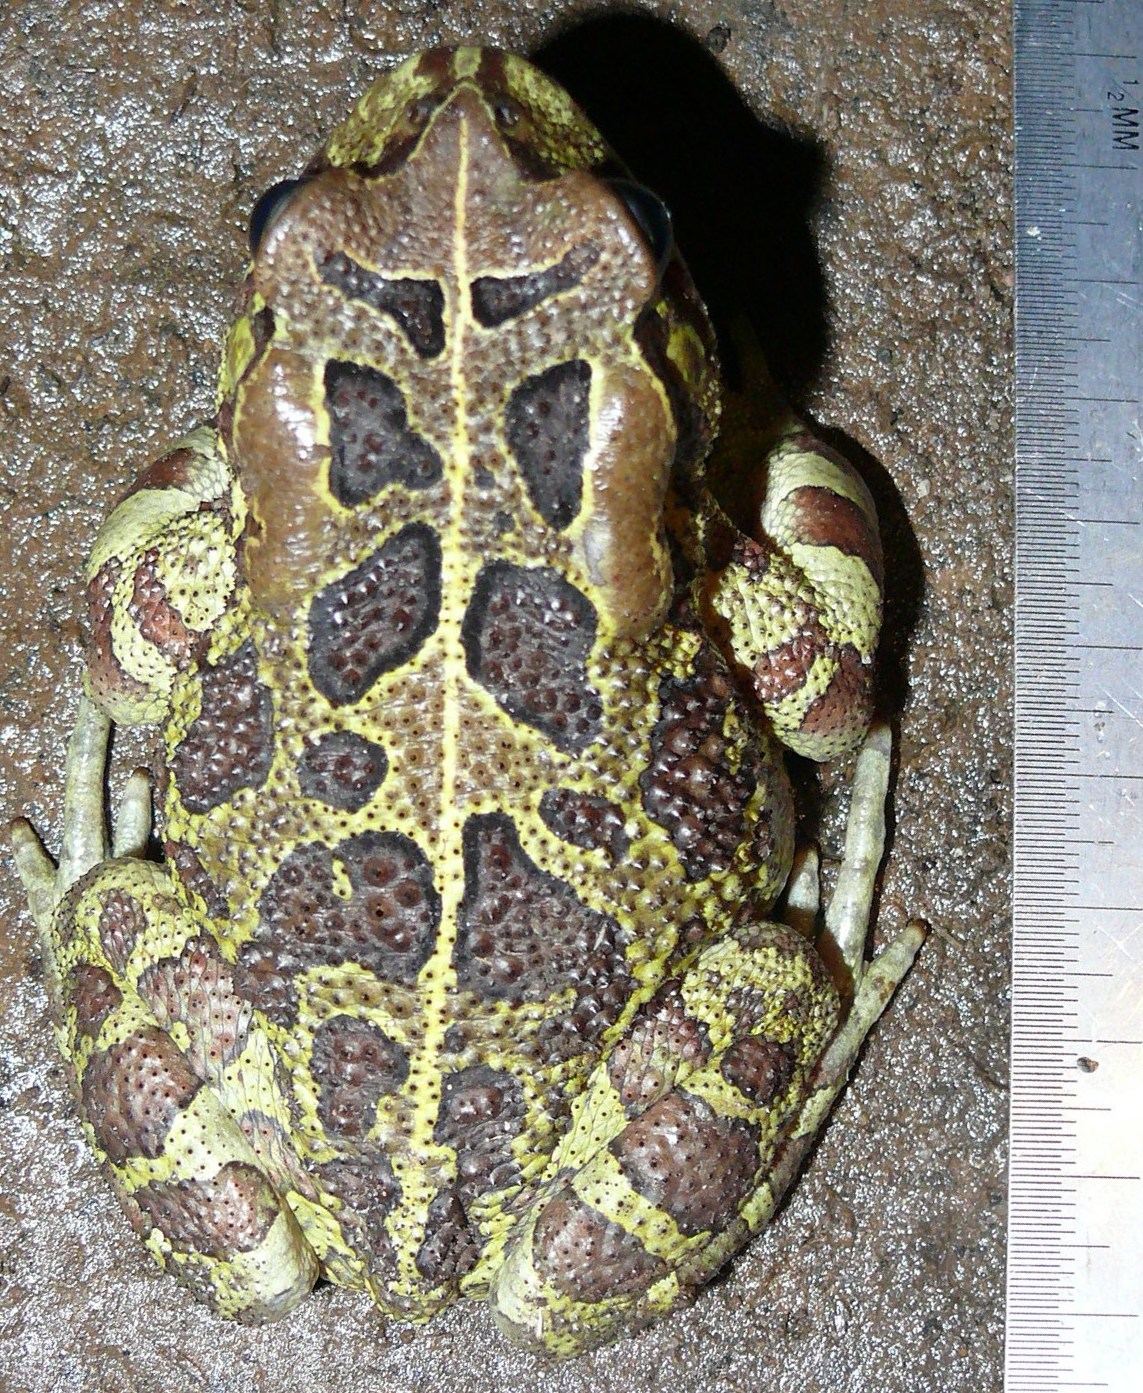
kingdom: Animalia
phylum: Chordata
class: Amphibia
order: Anura
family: Bufonidae
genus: Sclerophrys
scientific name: Sclerophrys pantherina
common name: Panther toad
